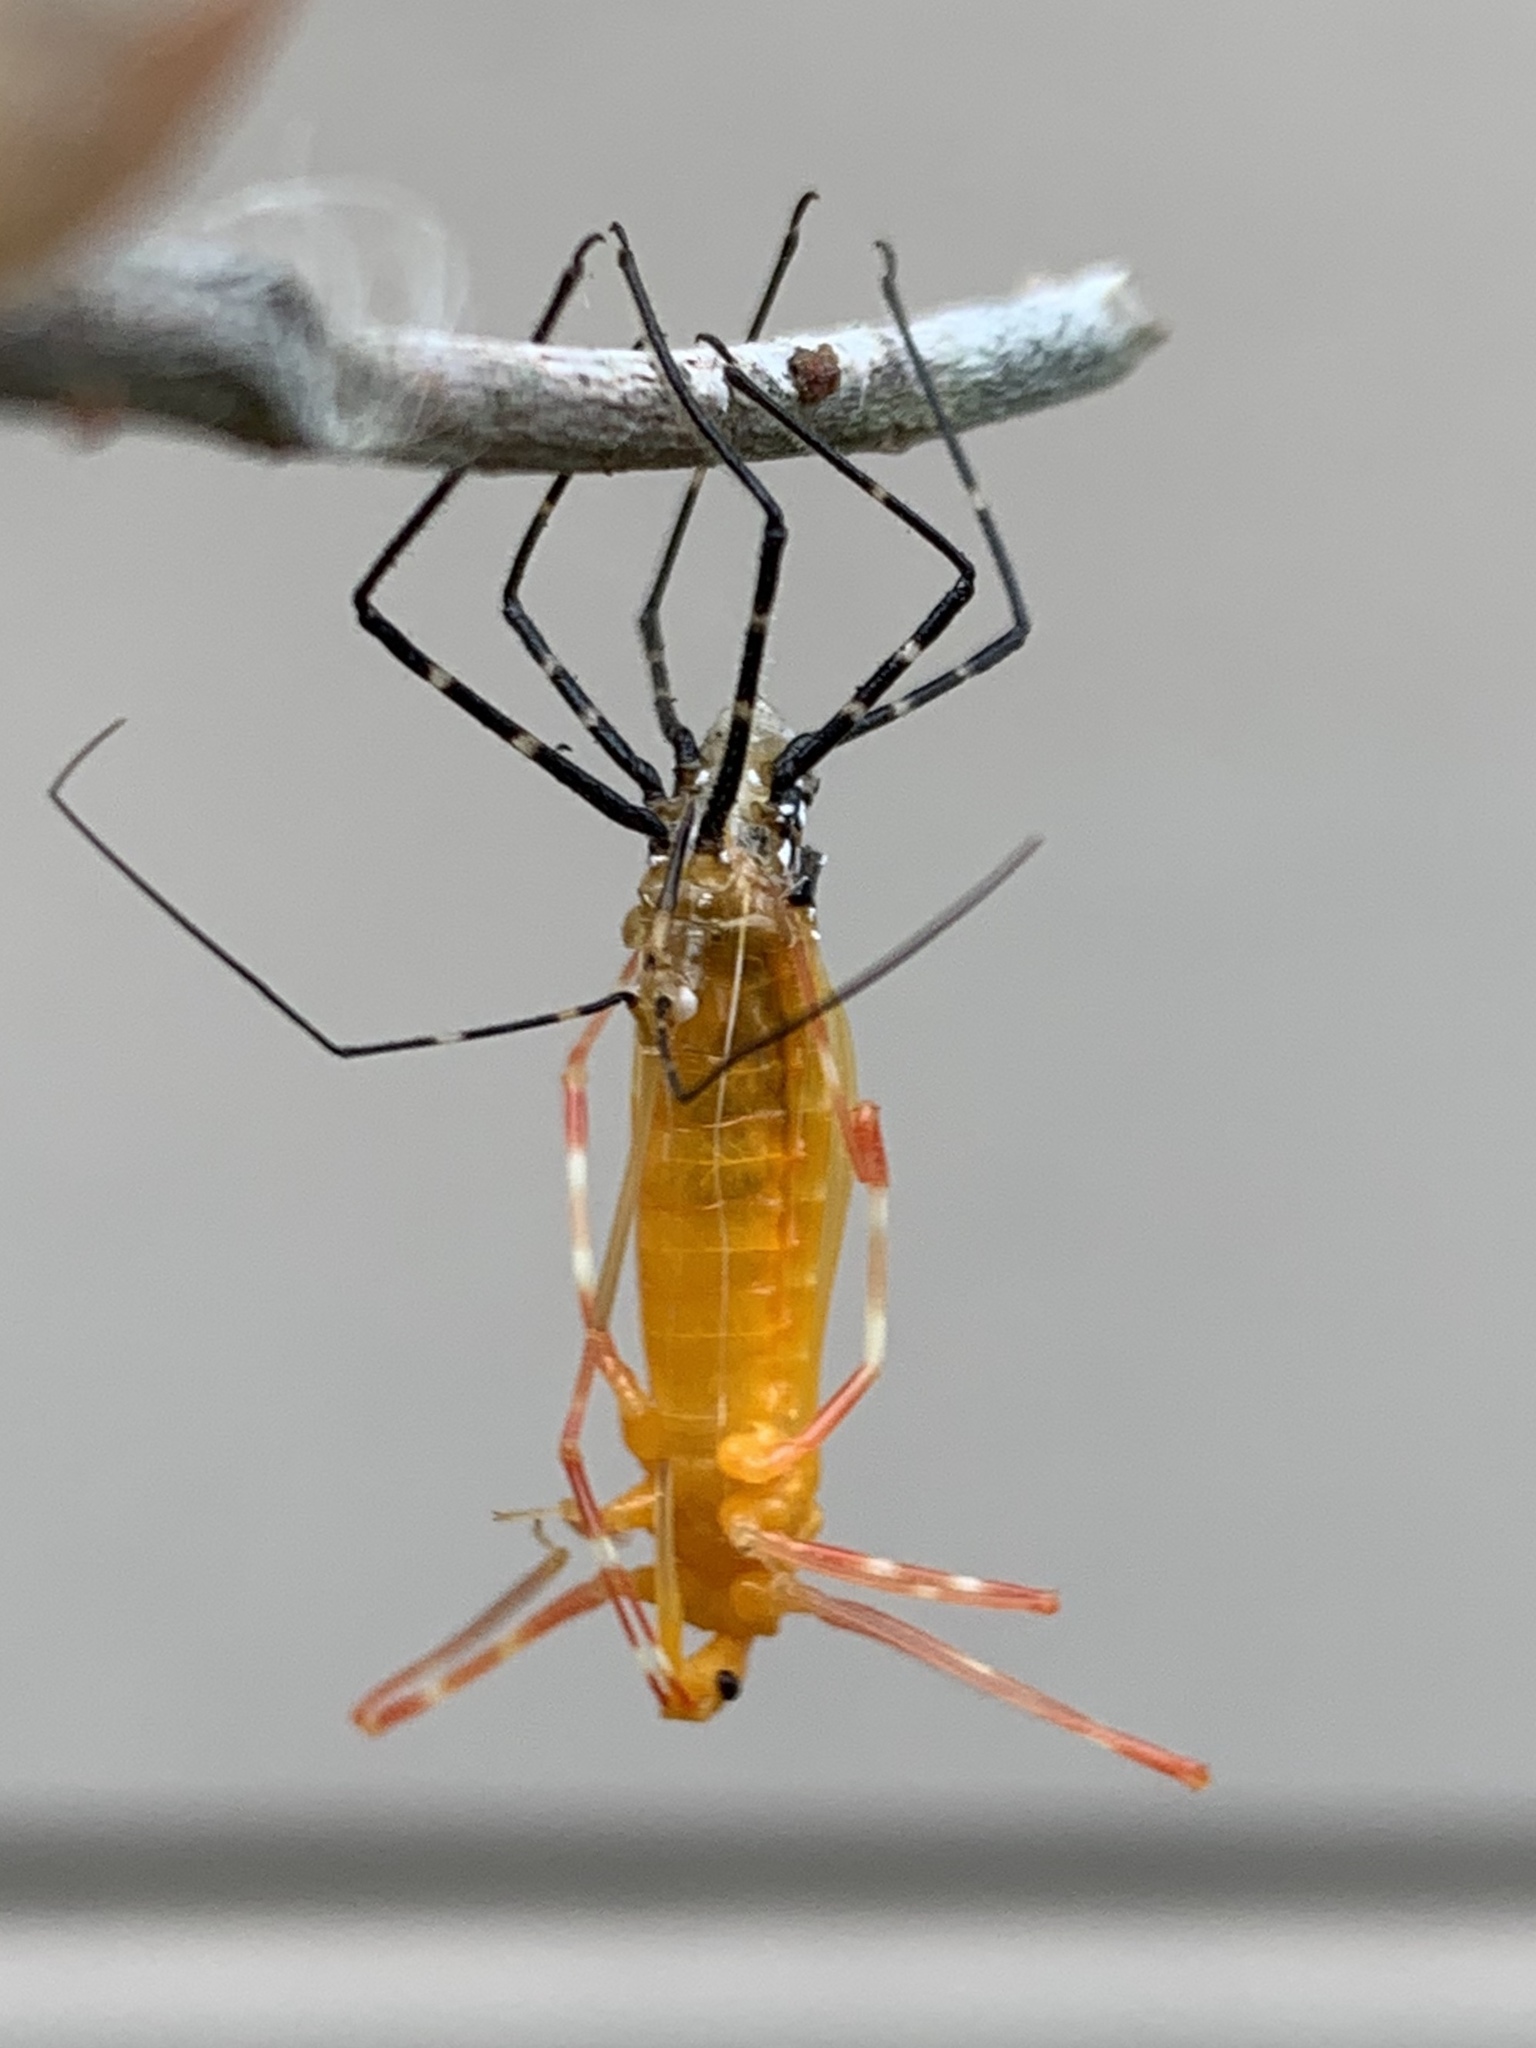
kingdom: Animalia
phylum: Arthropoda
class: Insecta
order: Hemiptera
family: Reduviidae
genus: Zelus
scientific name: Zelus longipes
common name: Milkweed assassin bug
